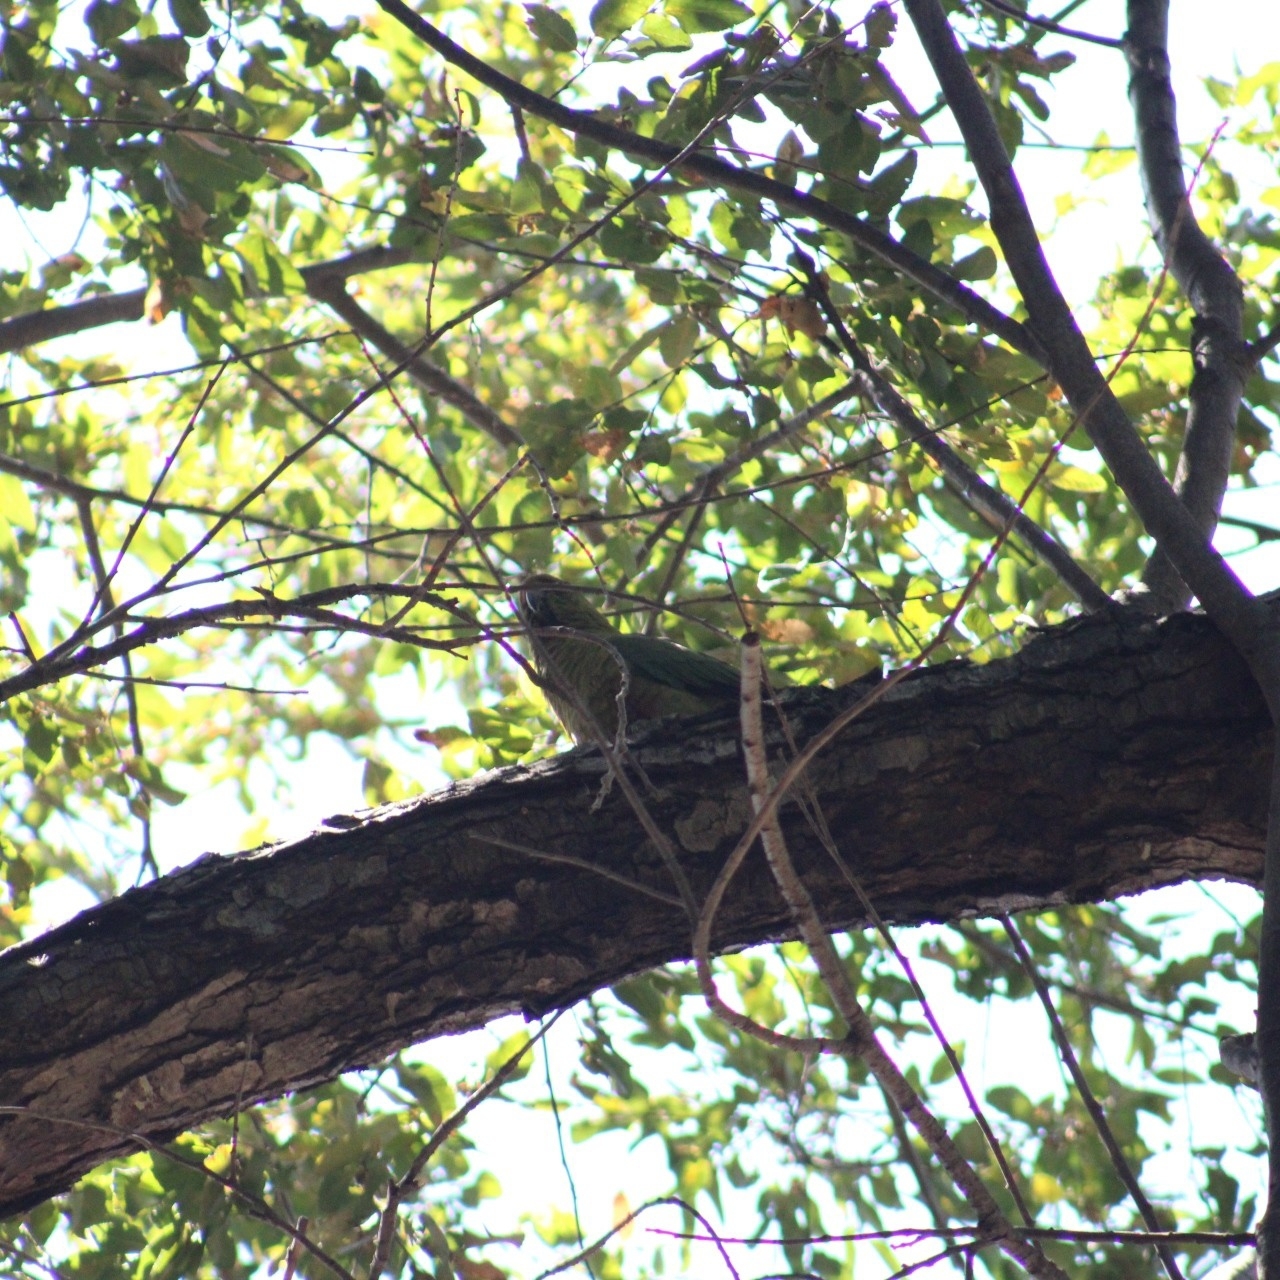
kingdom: Animalia
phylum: Chordata
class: Aves
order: Psittaciformes
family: Psittacidae
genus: Enicognathus
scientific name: Enicognathus ferrugineus
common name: Austral parakeet
